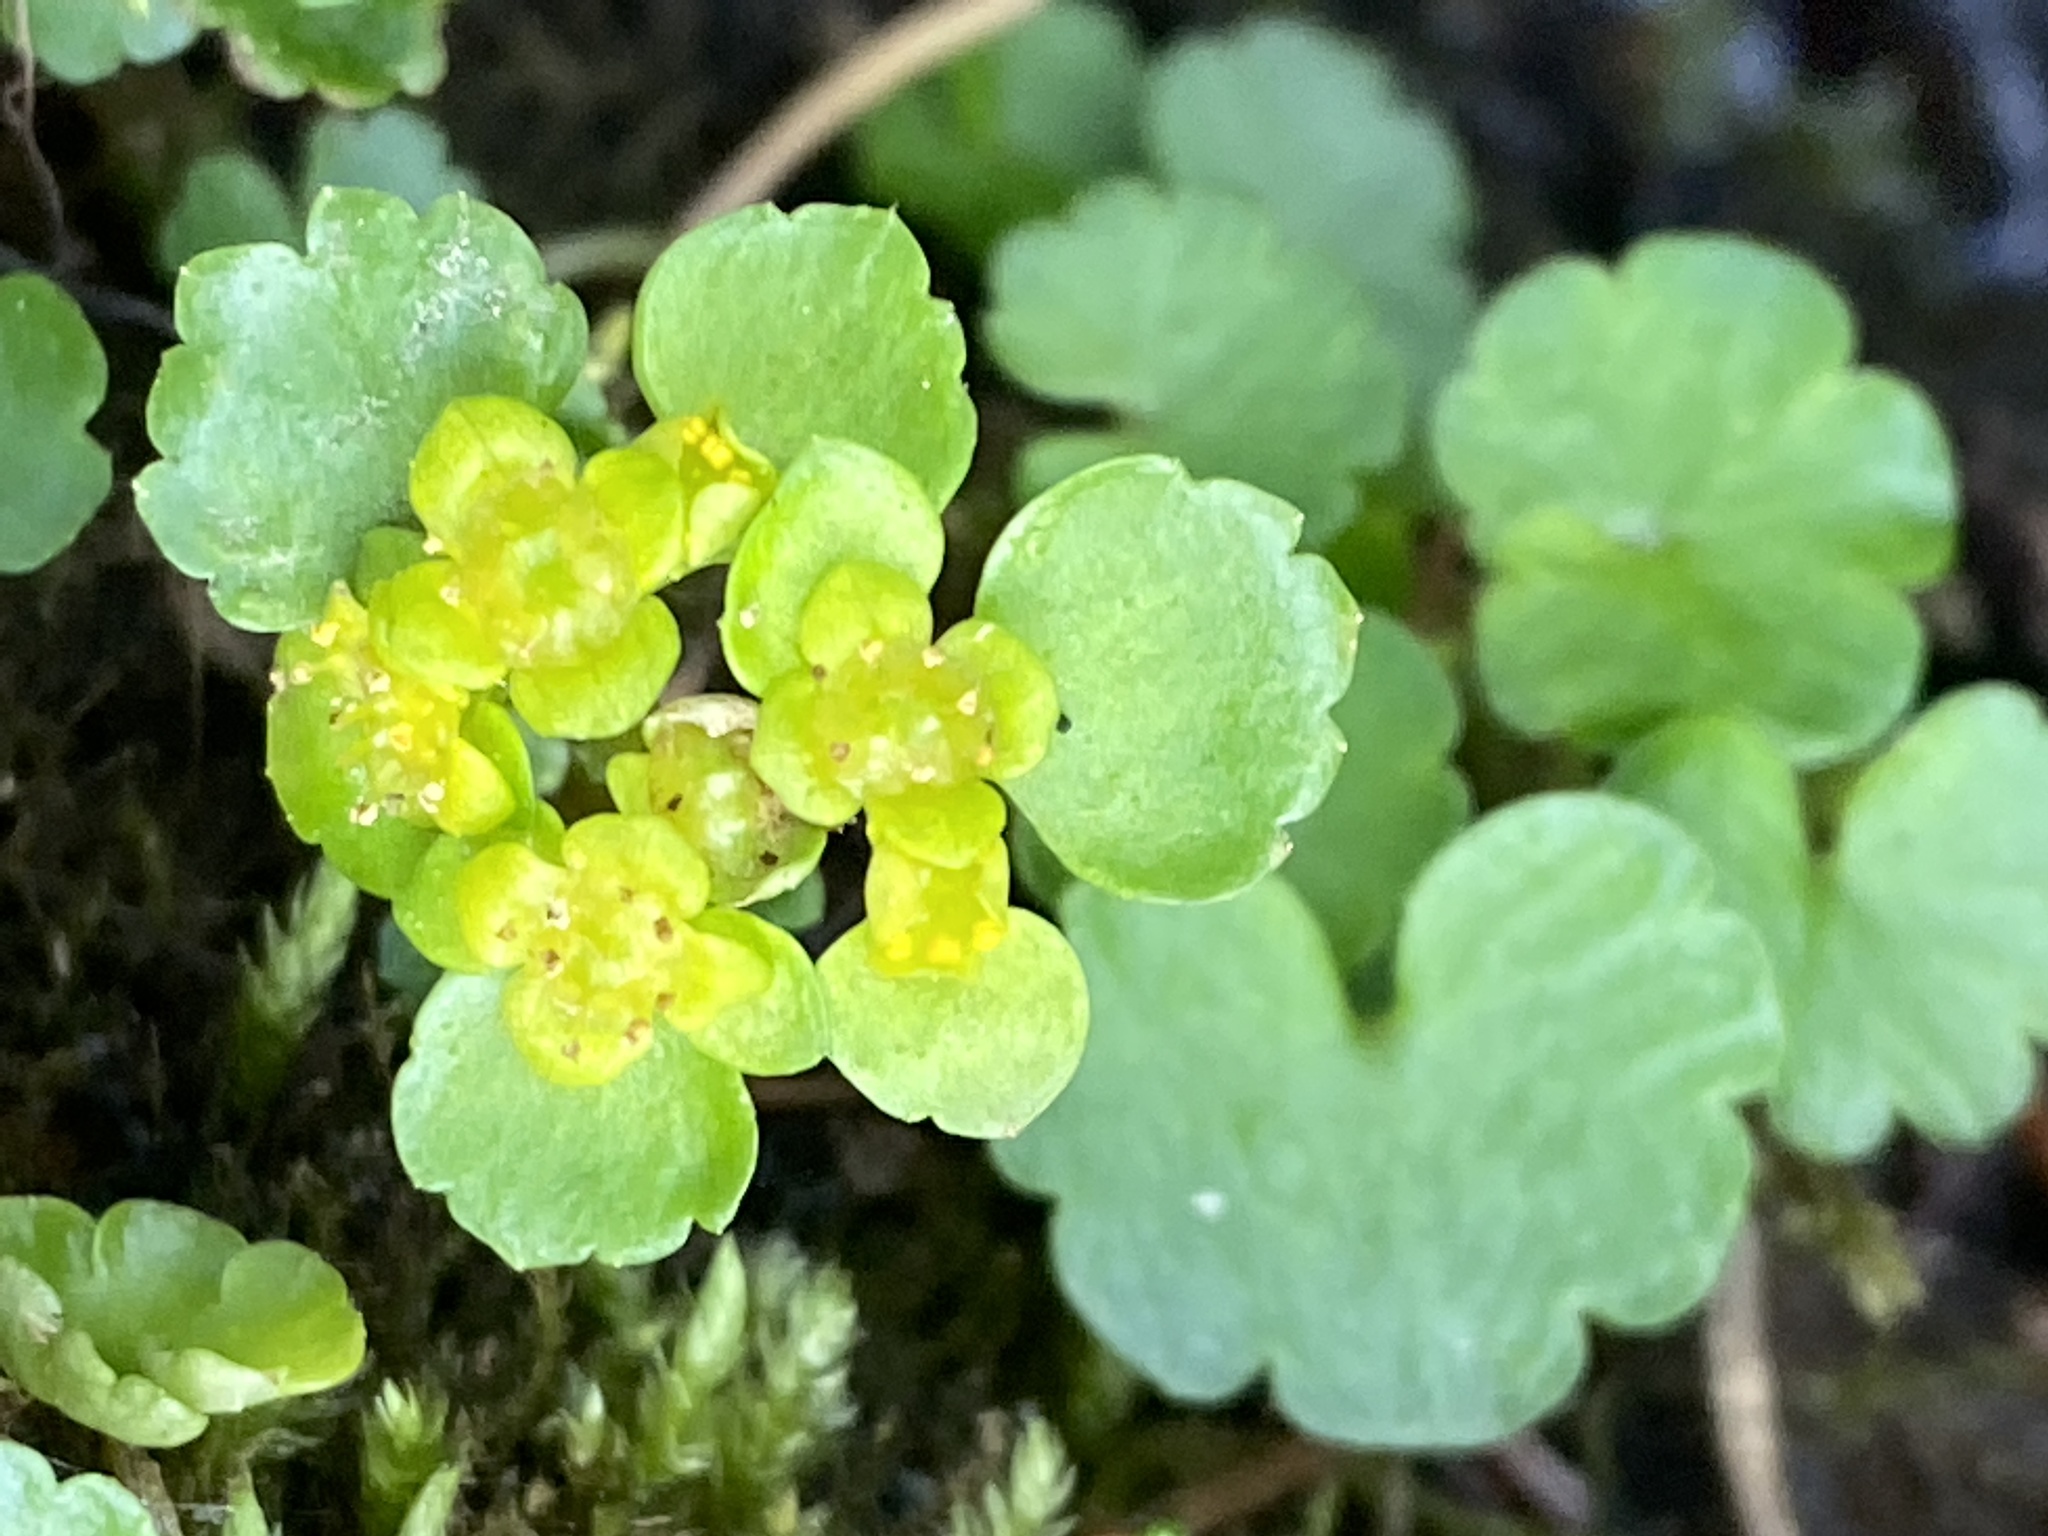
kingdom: Plantae
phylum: Tracheophyta
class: Magnoliopsida
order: Saxifragales
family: Saxifragaceae
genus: Chrysosplenium
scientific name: Chrysosplenium alternifolium
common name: Alternate-leaved golden-saxifrage
